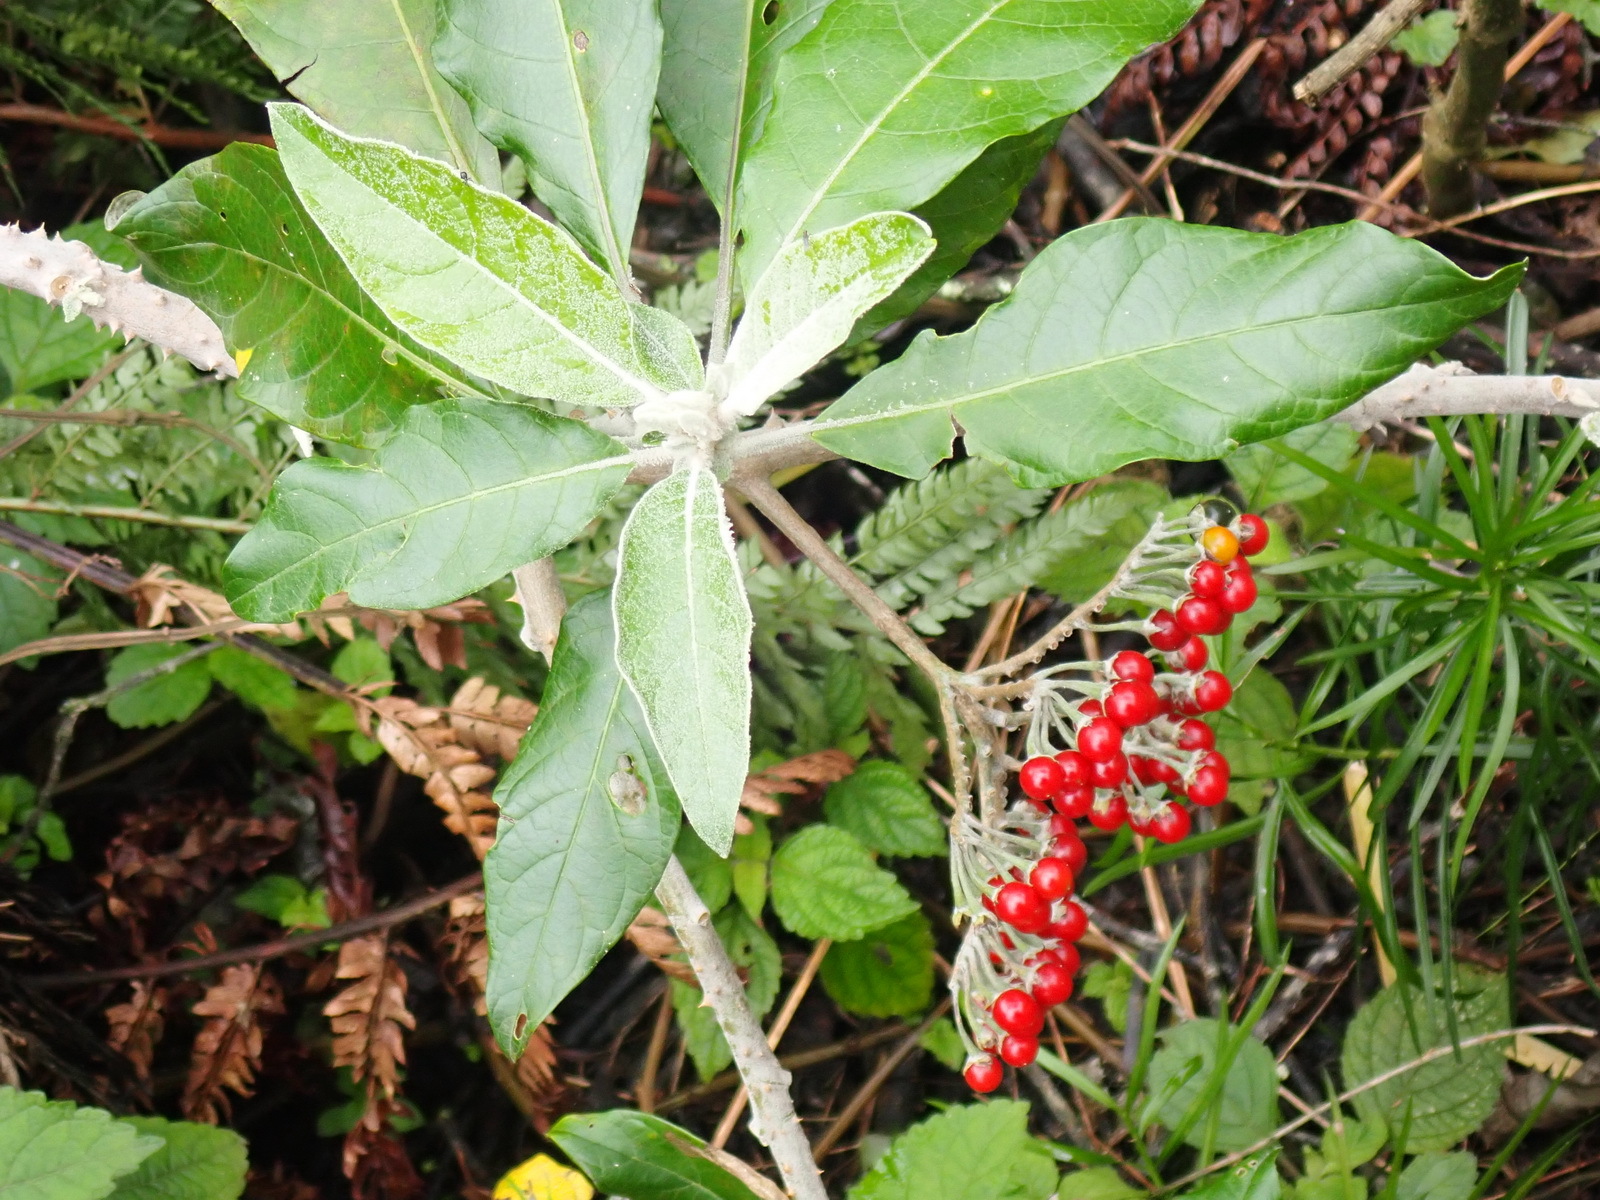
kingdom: Plantae
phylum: Tracheophyta
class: Magnoliopsida
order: Solanales
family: Solanaceae
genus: Solanum
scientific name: Solanum giganteum
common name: Healing-leaf-tree
